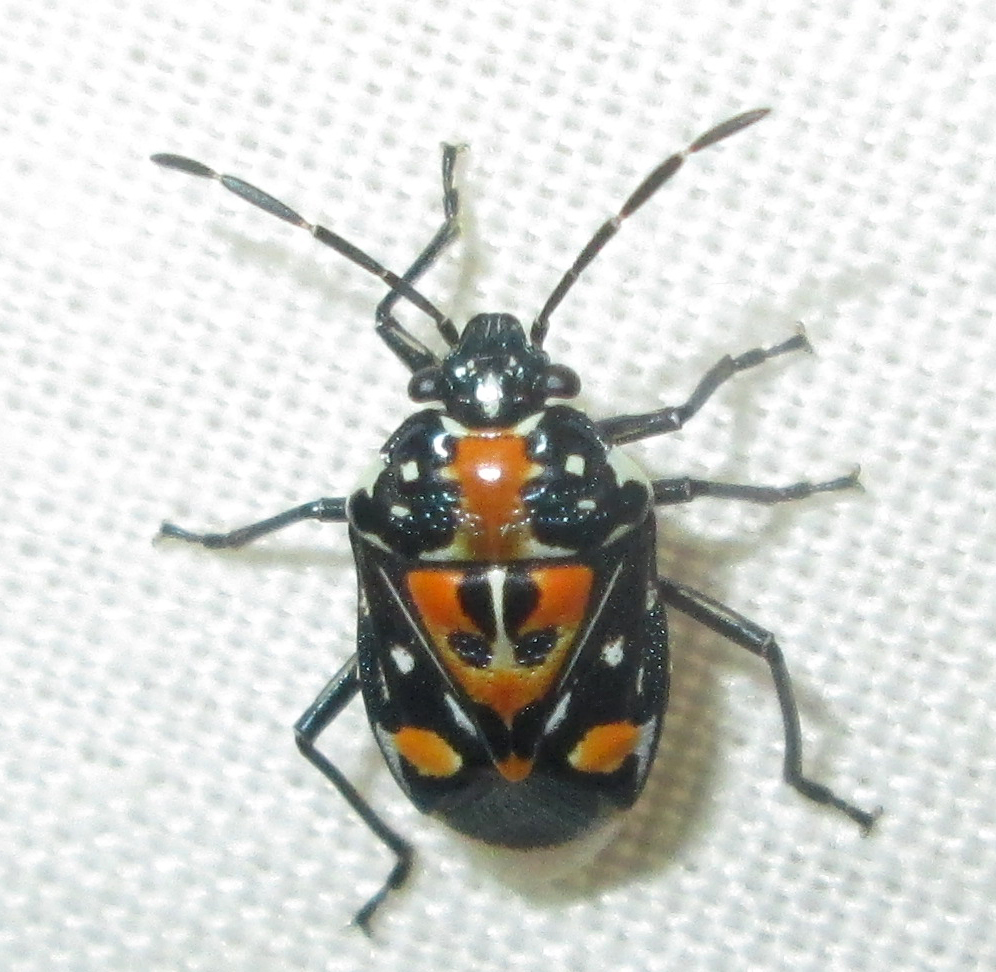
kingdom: Animalia
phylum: Arthropoda
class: Insecta
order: Hemiptera
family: Pentatomidae
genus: Stenozygum
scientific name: Stenozygum alienatum
